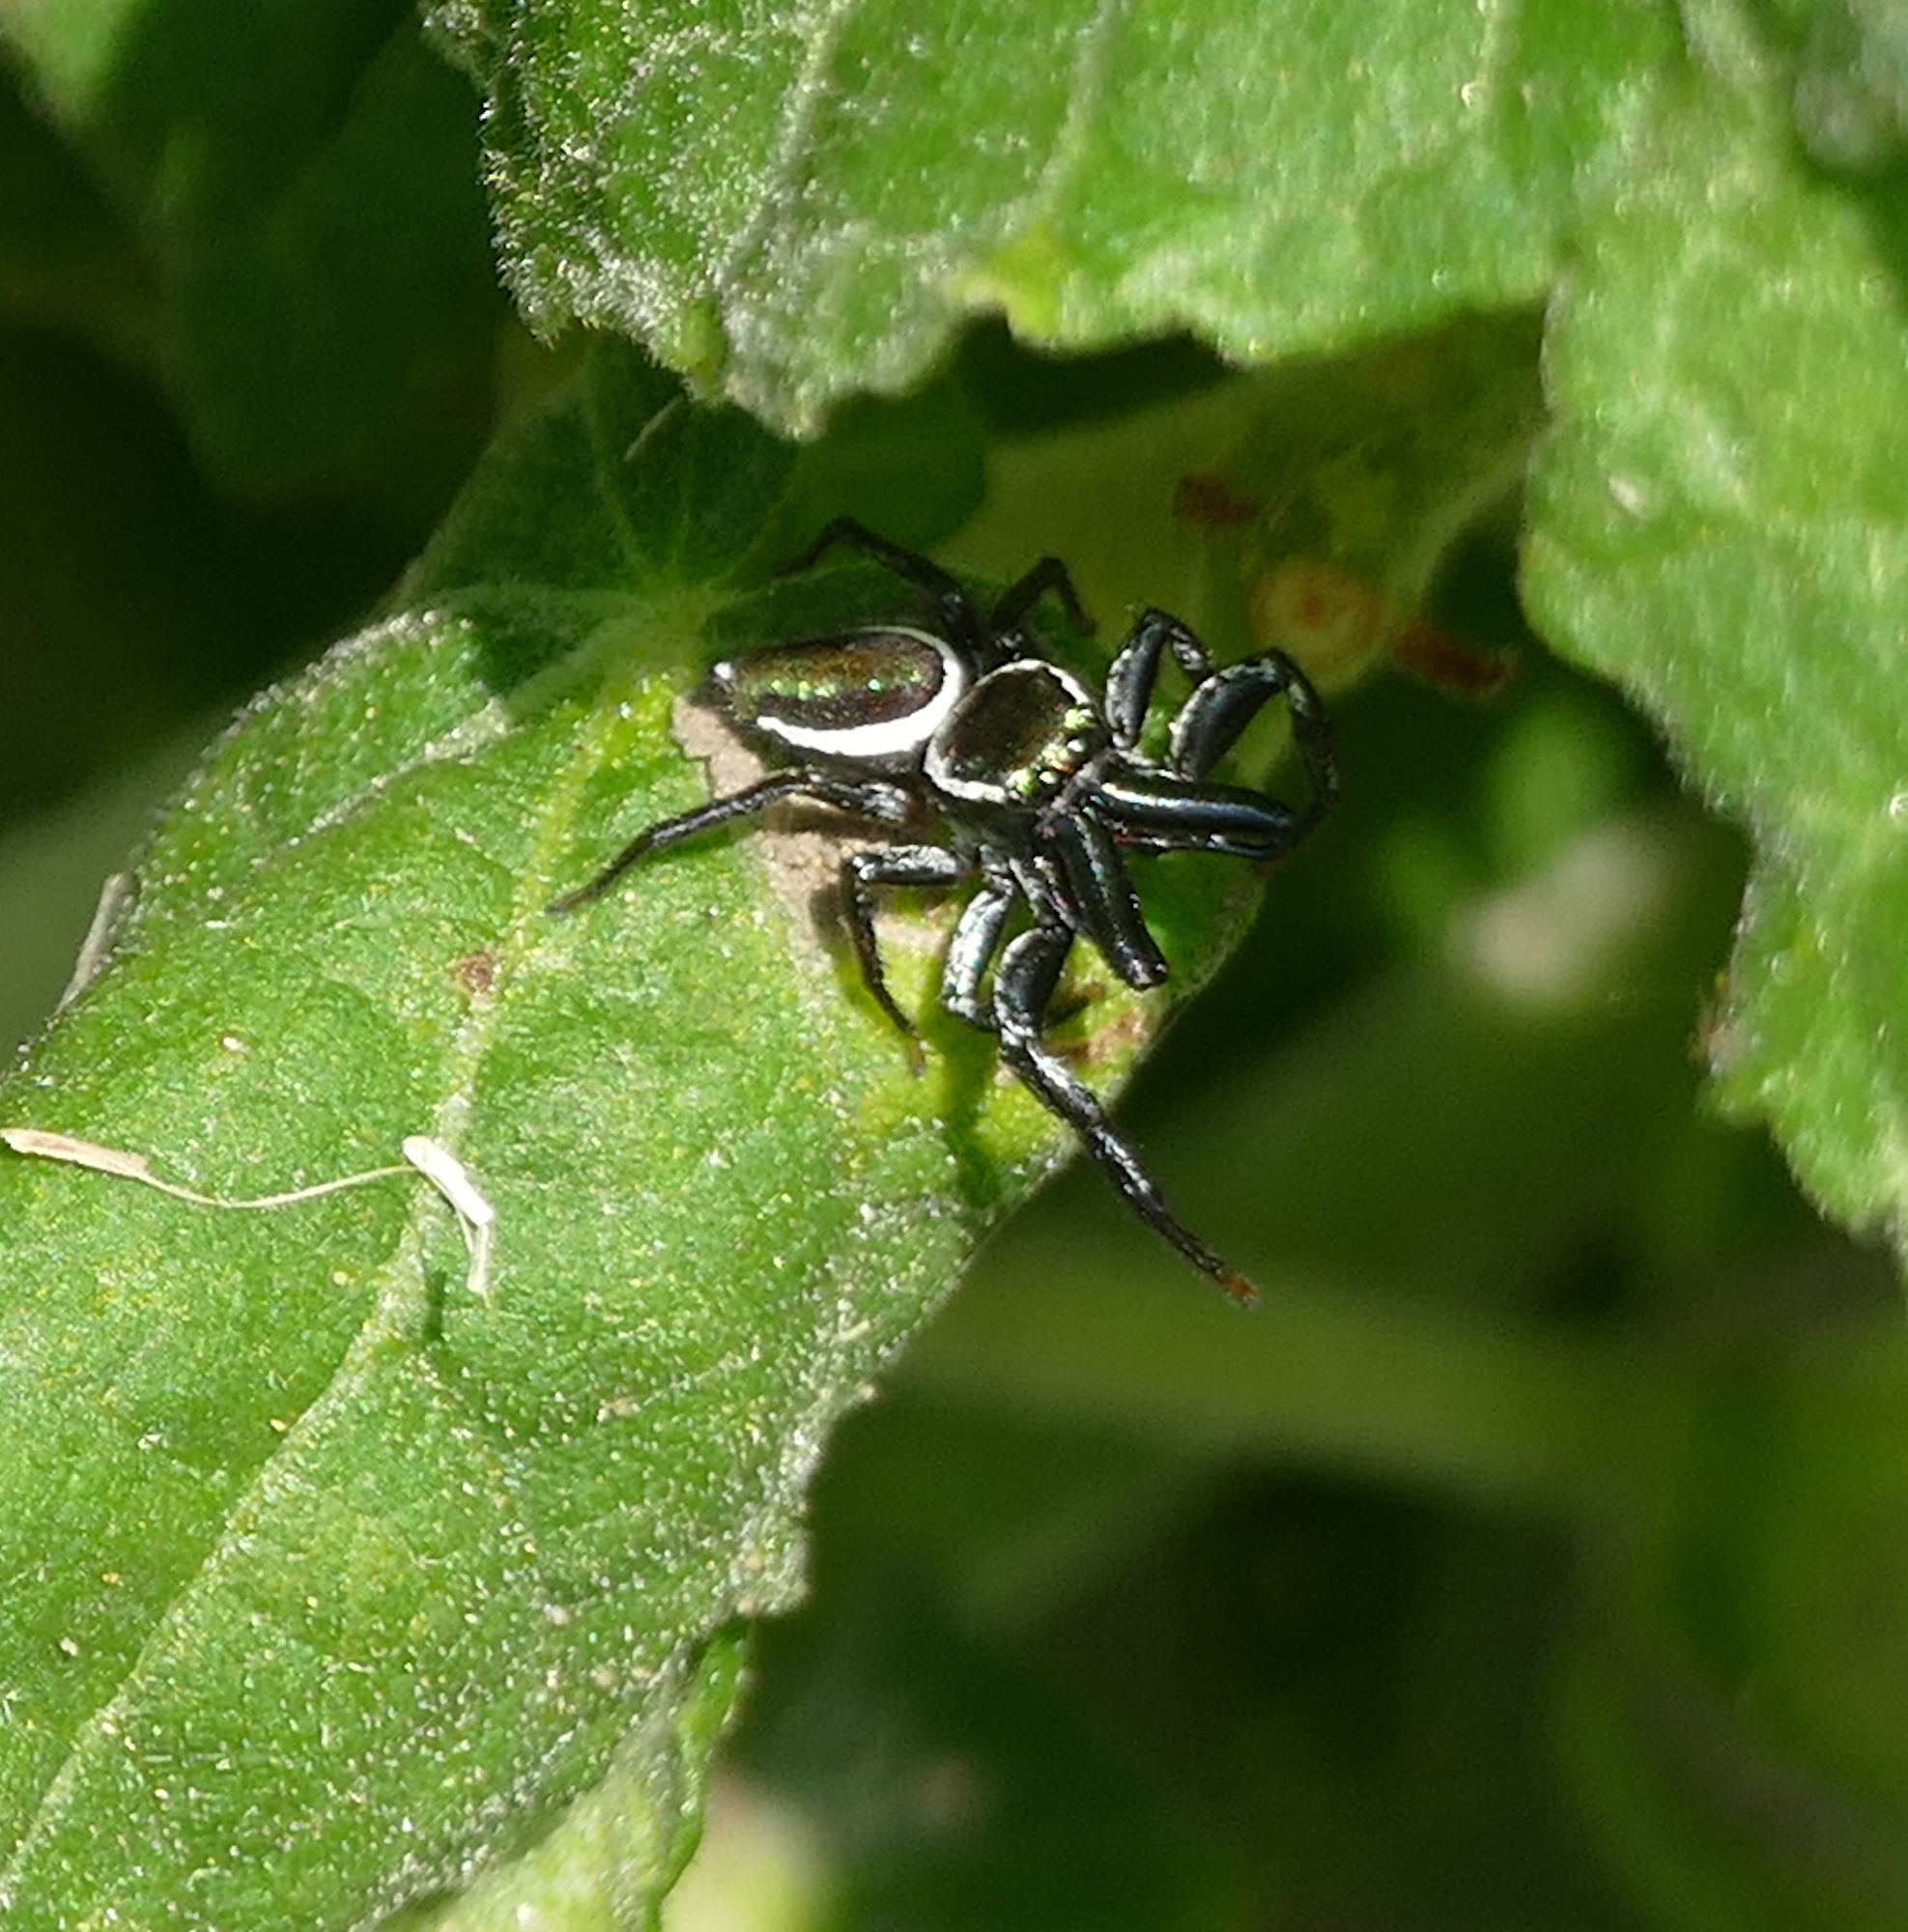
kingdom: Animalia
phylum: Arthropoda
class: Arachnida
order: Araneae
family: Salticidae
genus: Messua
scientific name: Messua limbata
